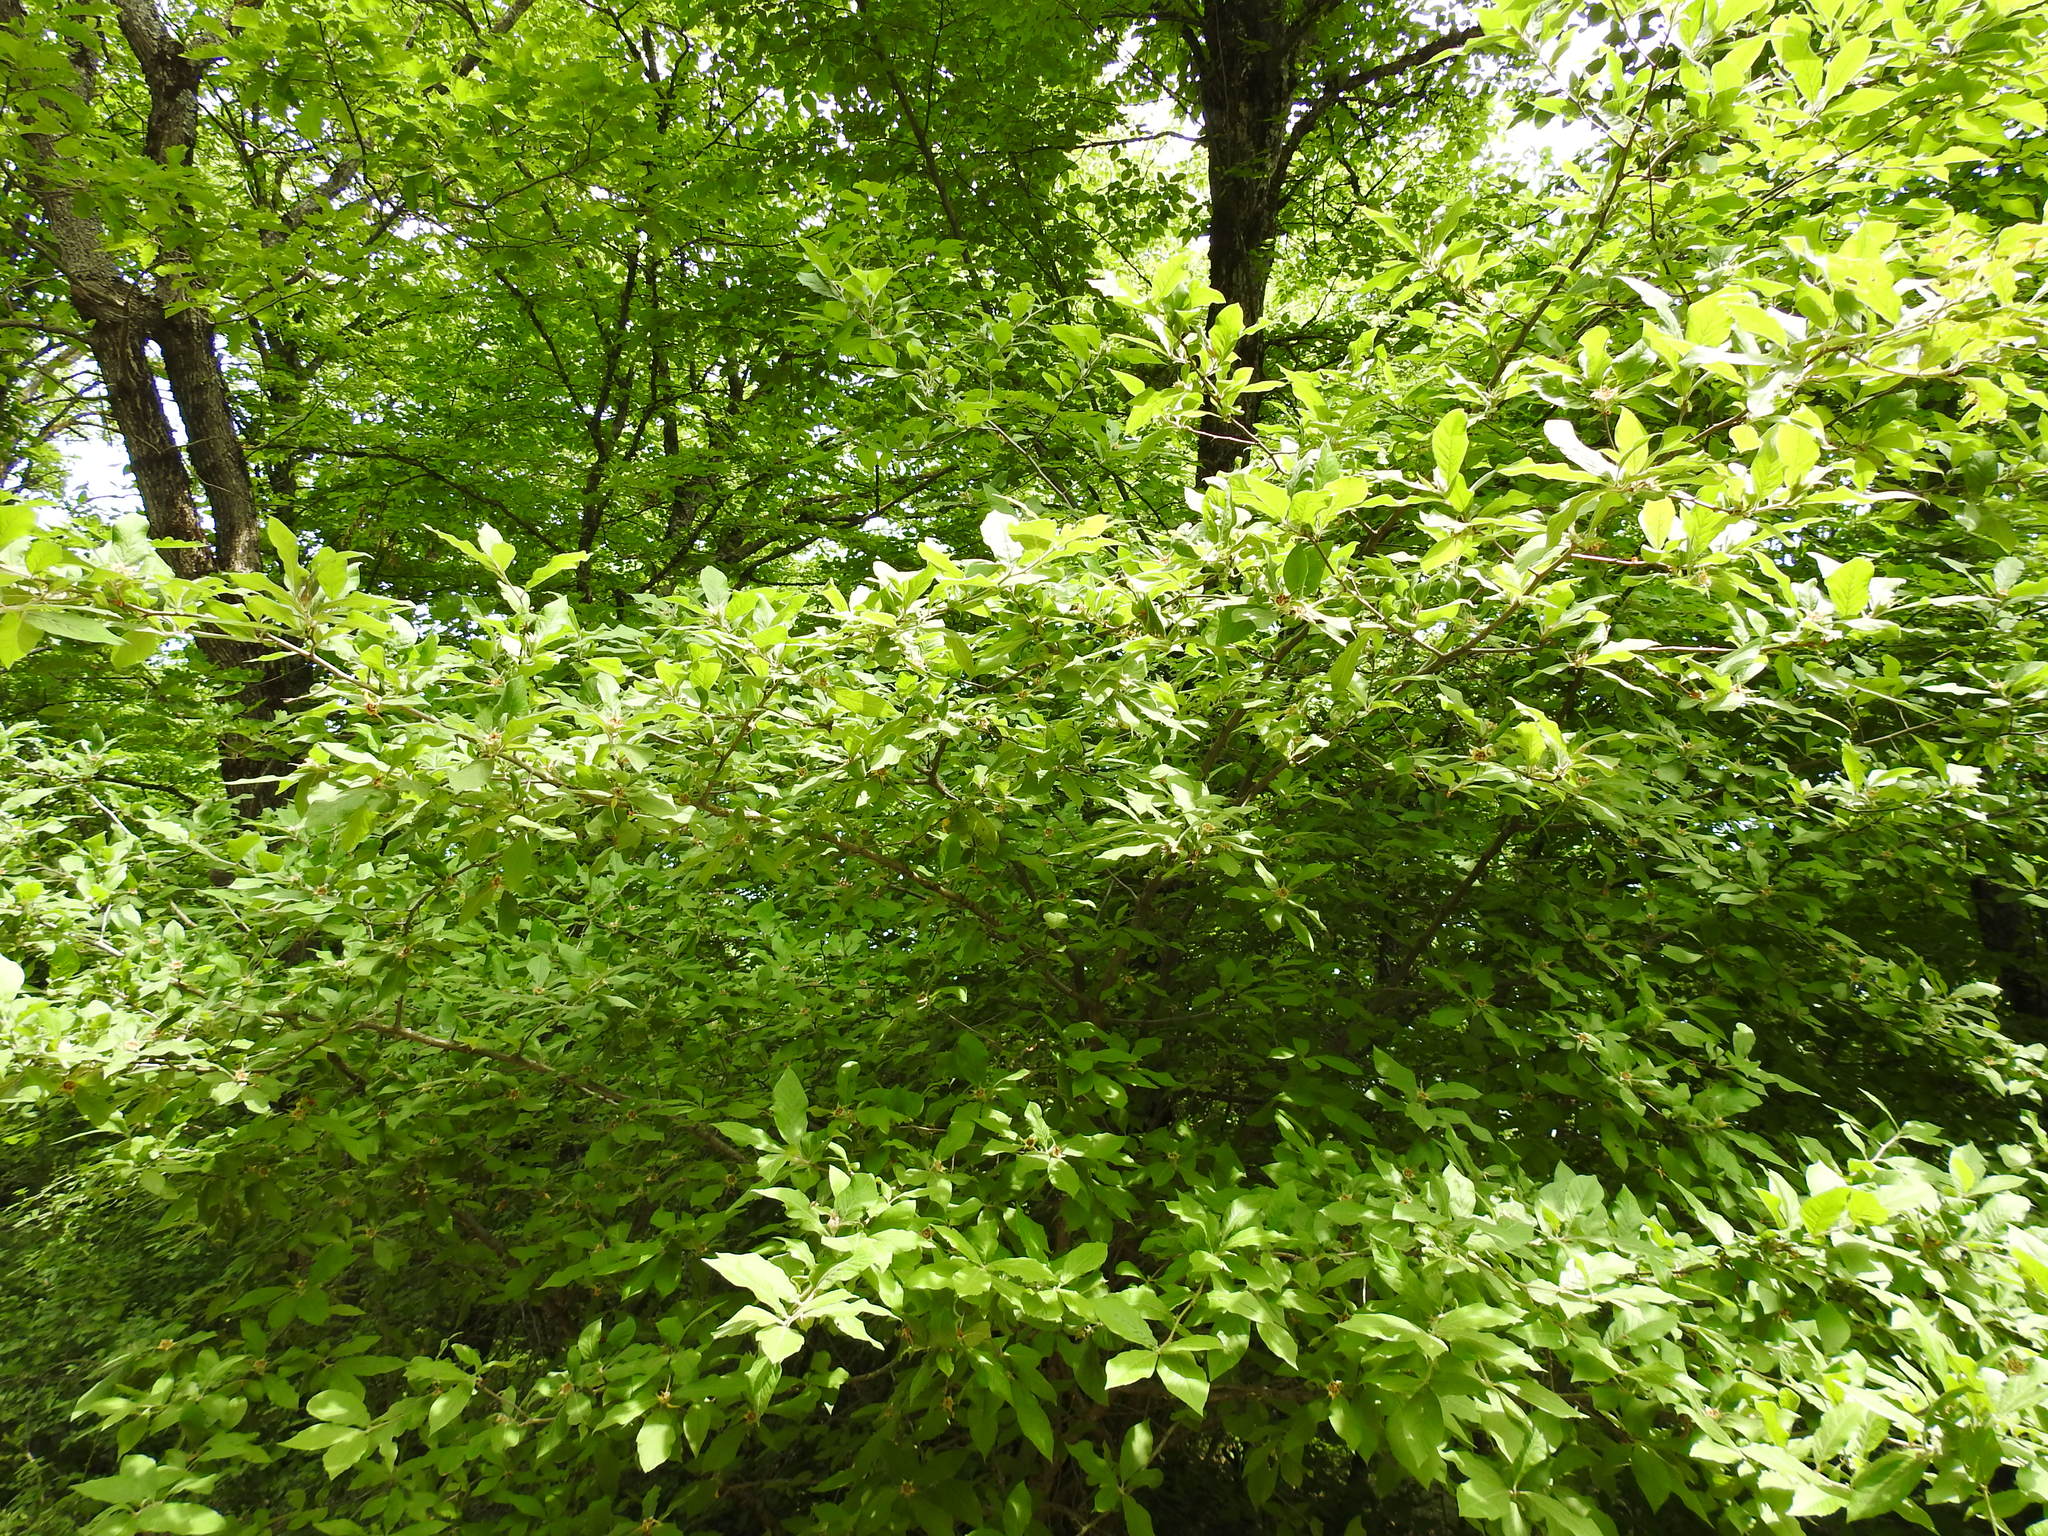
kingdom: Plantae
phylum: Tracheophyta
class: Magnoliopsida
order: Rosales
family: Rosaceae
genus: Mespilus
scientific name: Mespilus germanica
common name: Medlar
